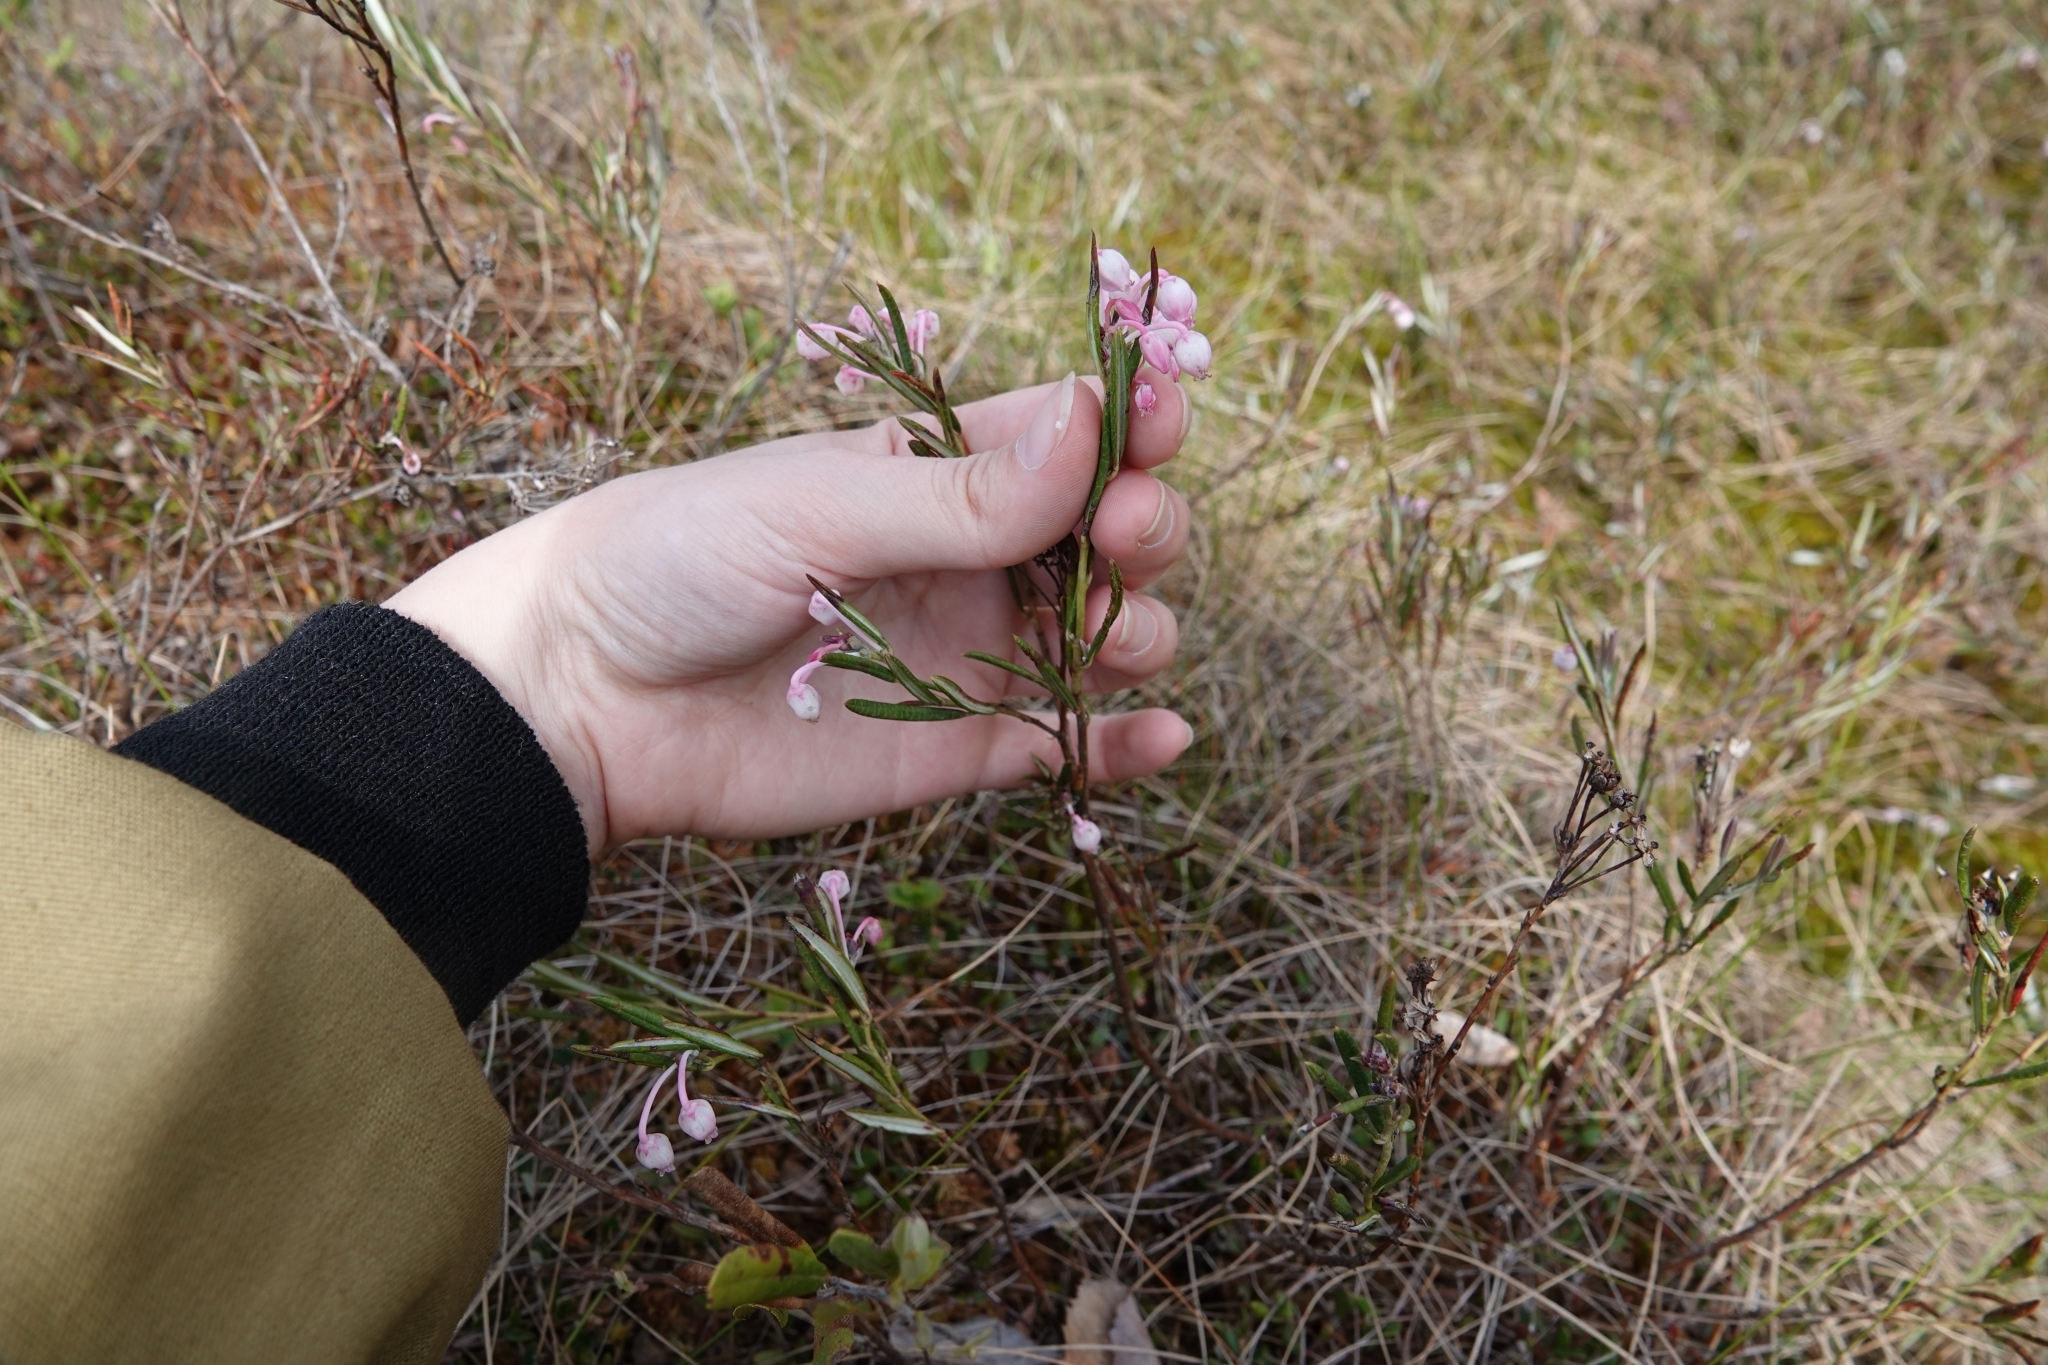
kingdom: Plantae
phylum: Tracheophyta
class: Magnoliopsida
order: Ericales
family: Ericaceae
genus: Andromeda
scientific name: Andromeda polifolia
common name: Bog-rosemary
